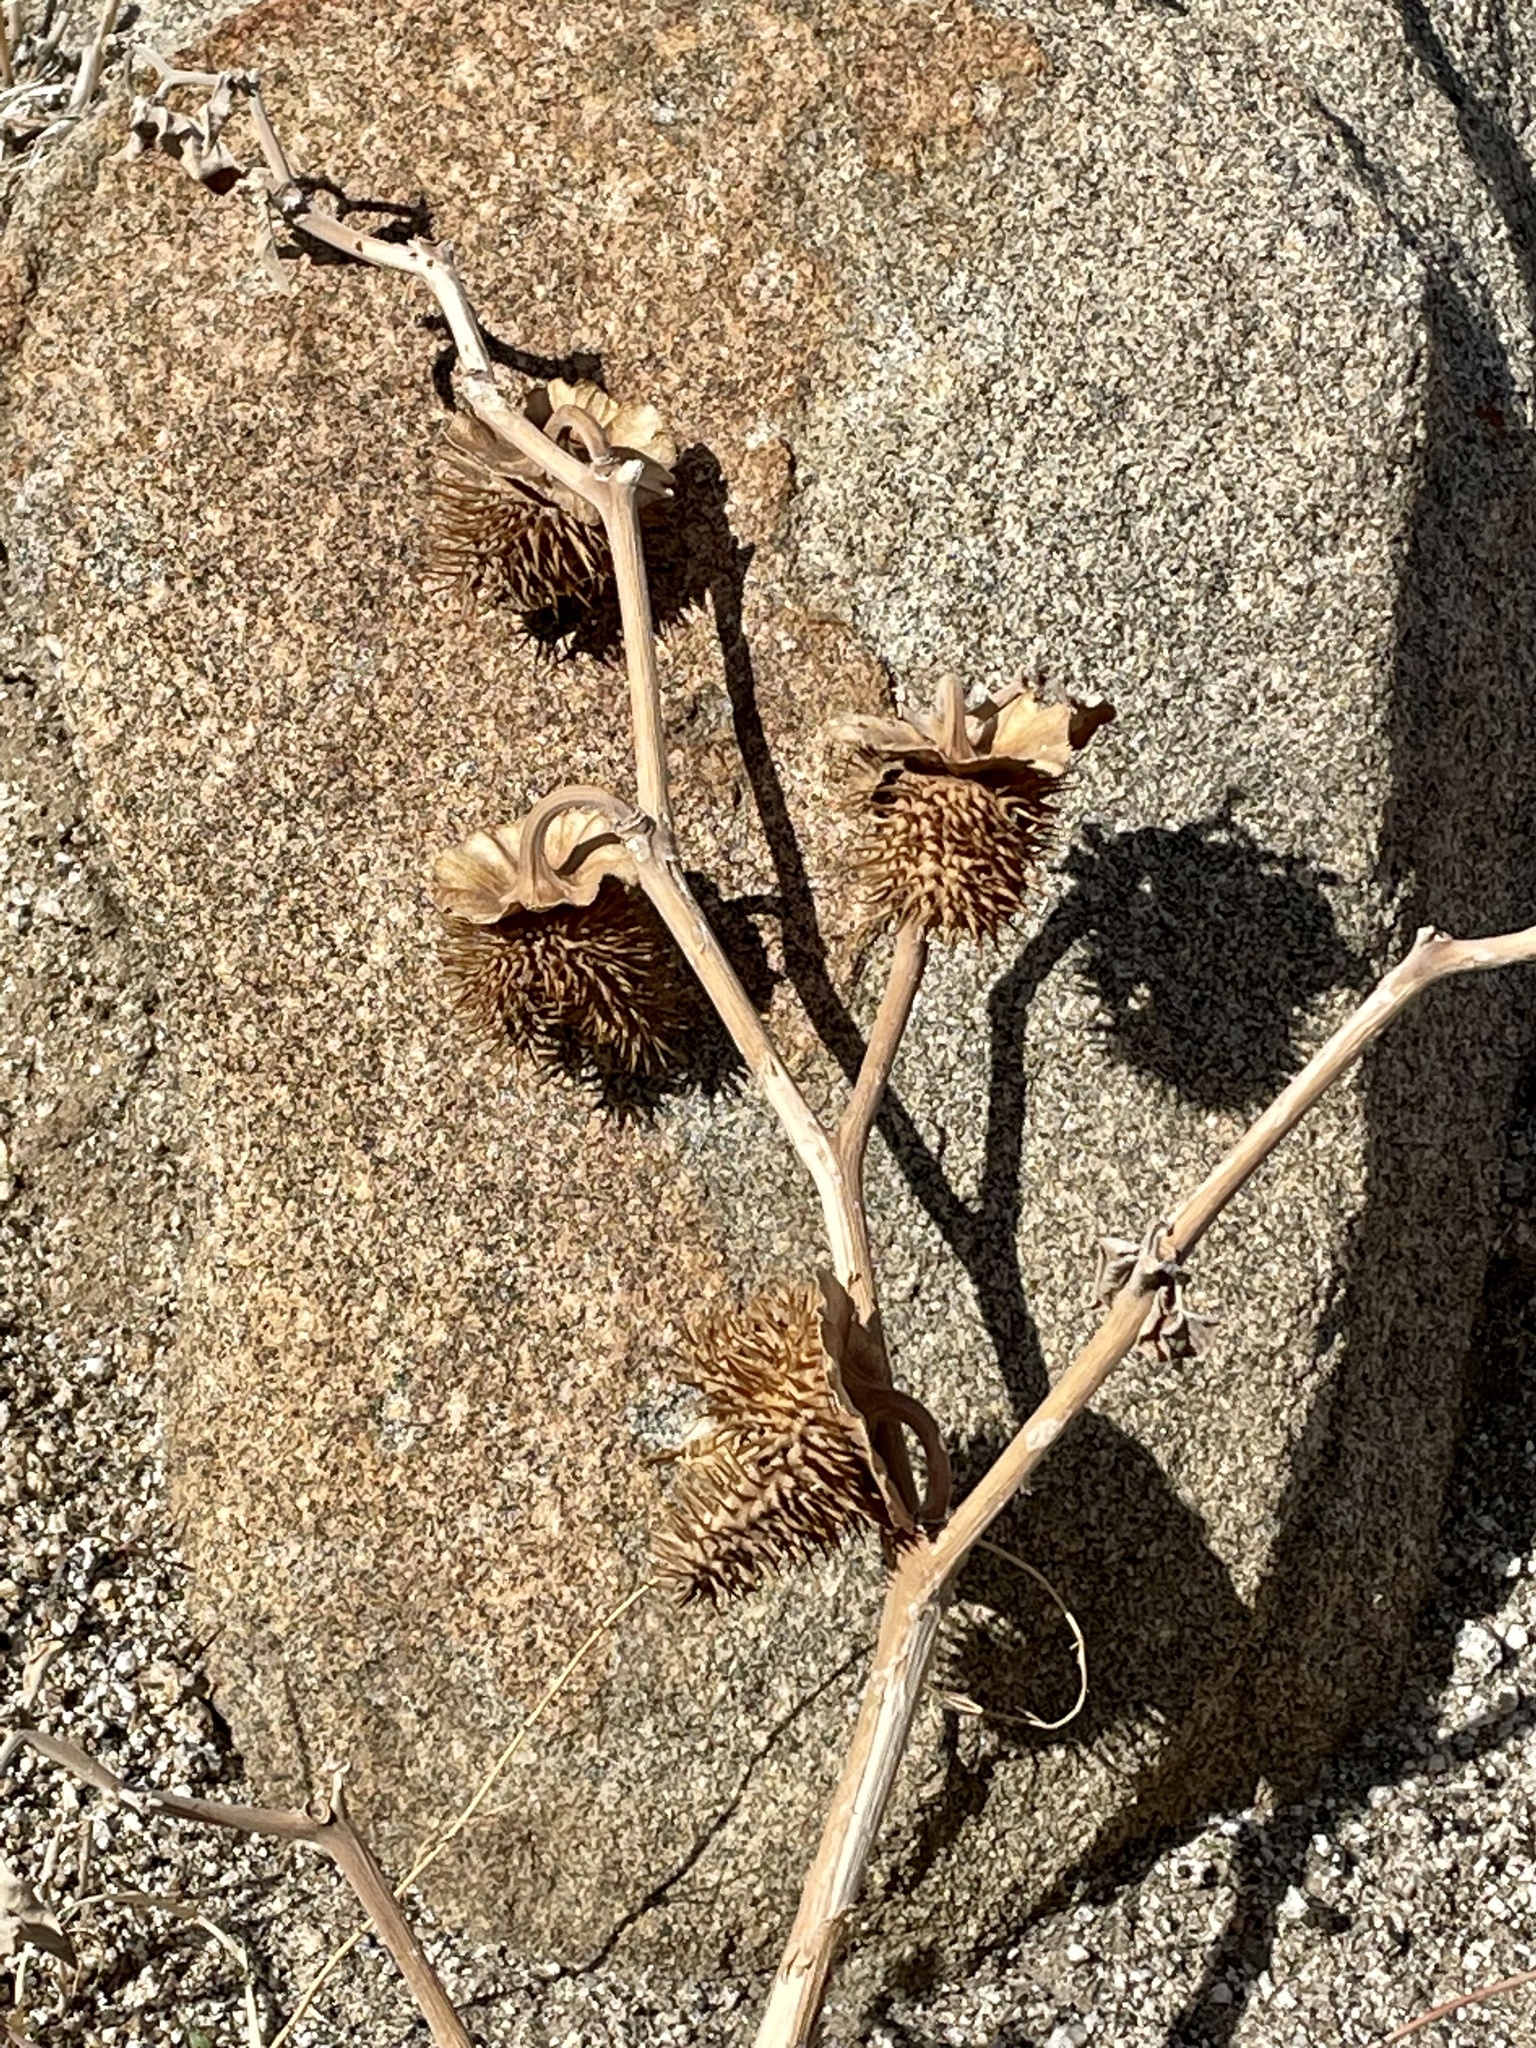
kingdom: Plantae
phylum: Tracheophyta
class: Magnoliopsida
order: Solanales
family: Solanaceae
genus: Datura
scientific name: Datura wrightii
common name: Sacred thorn-apple
